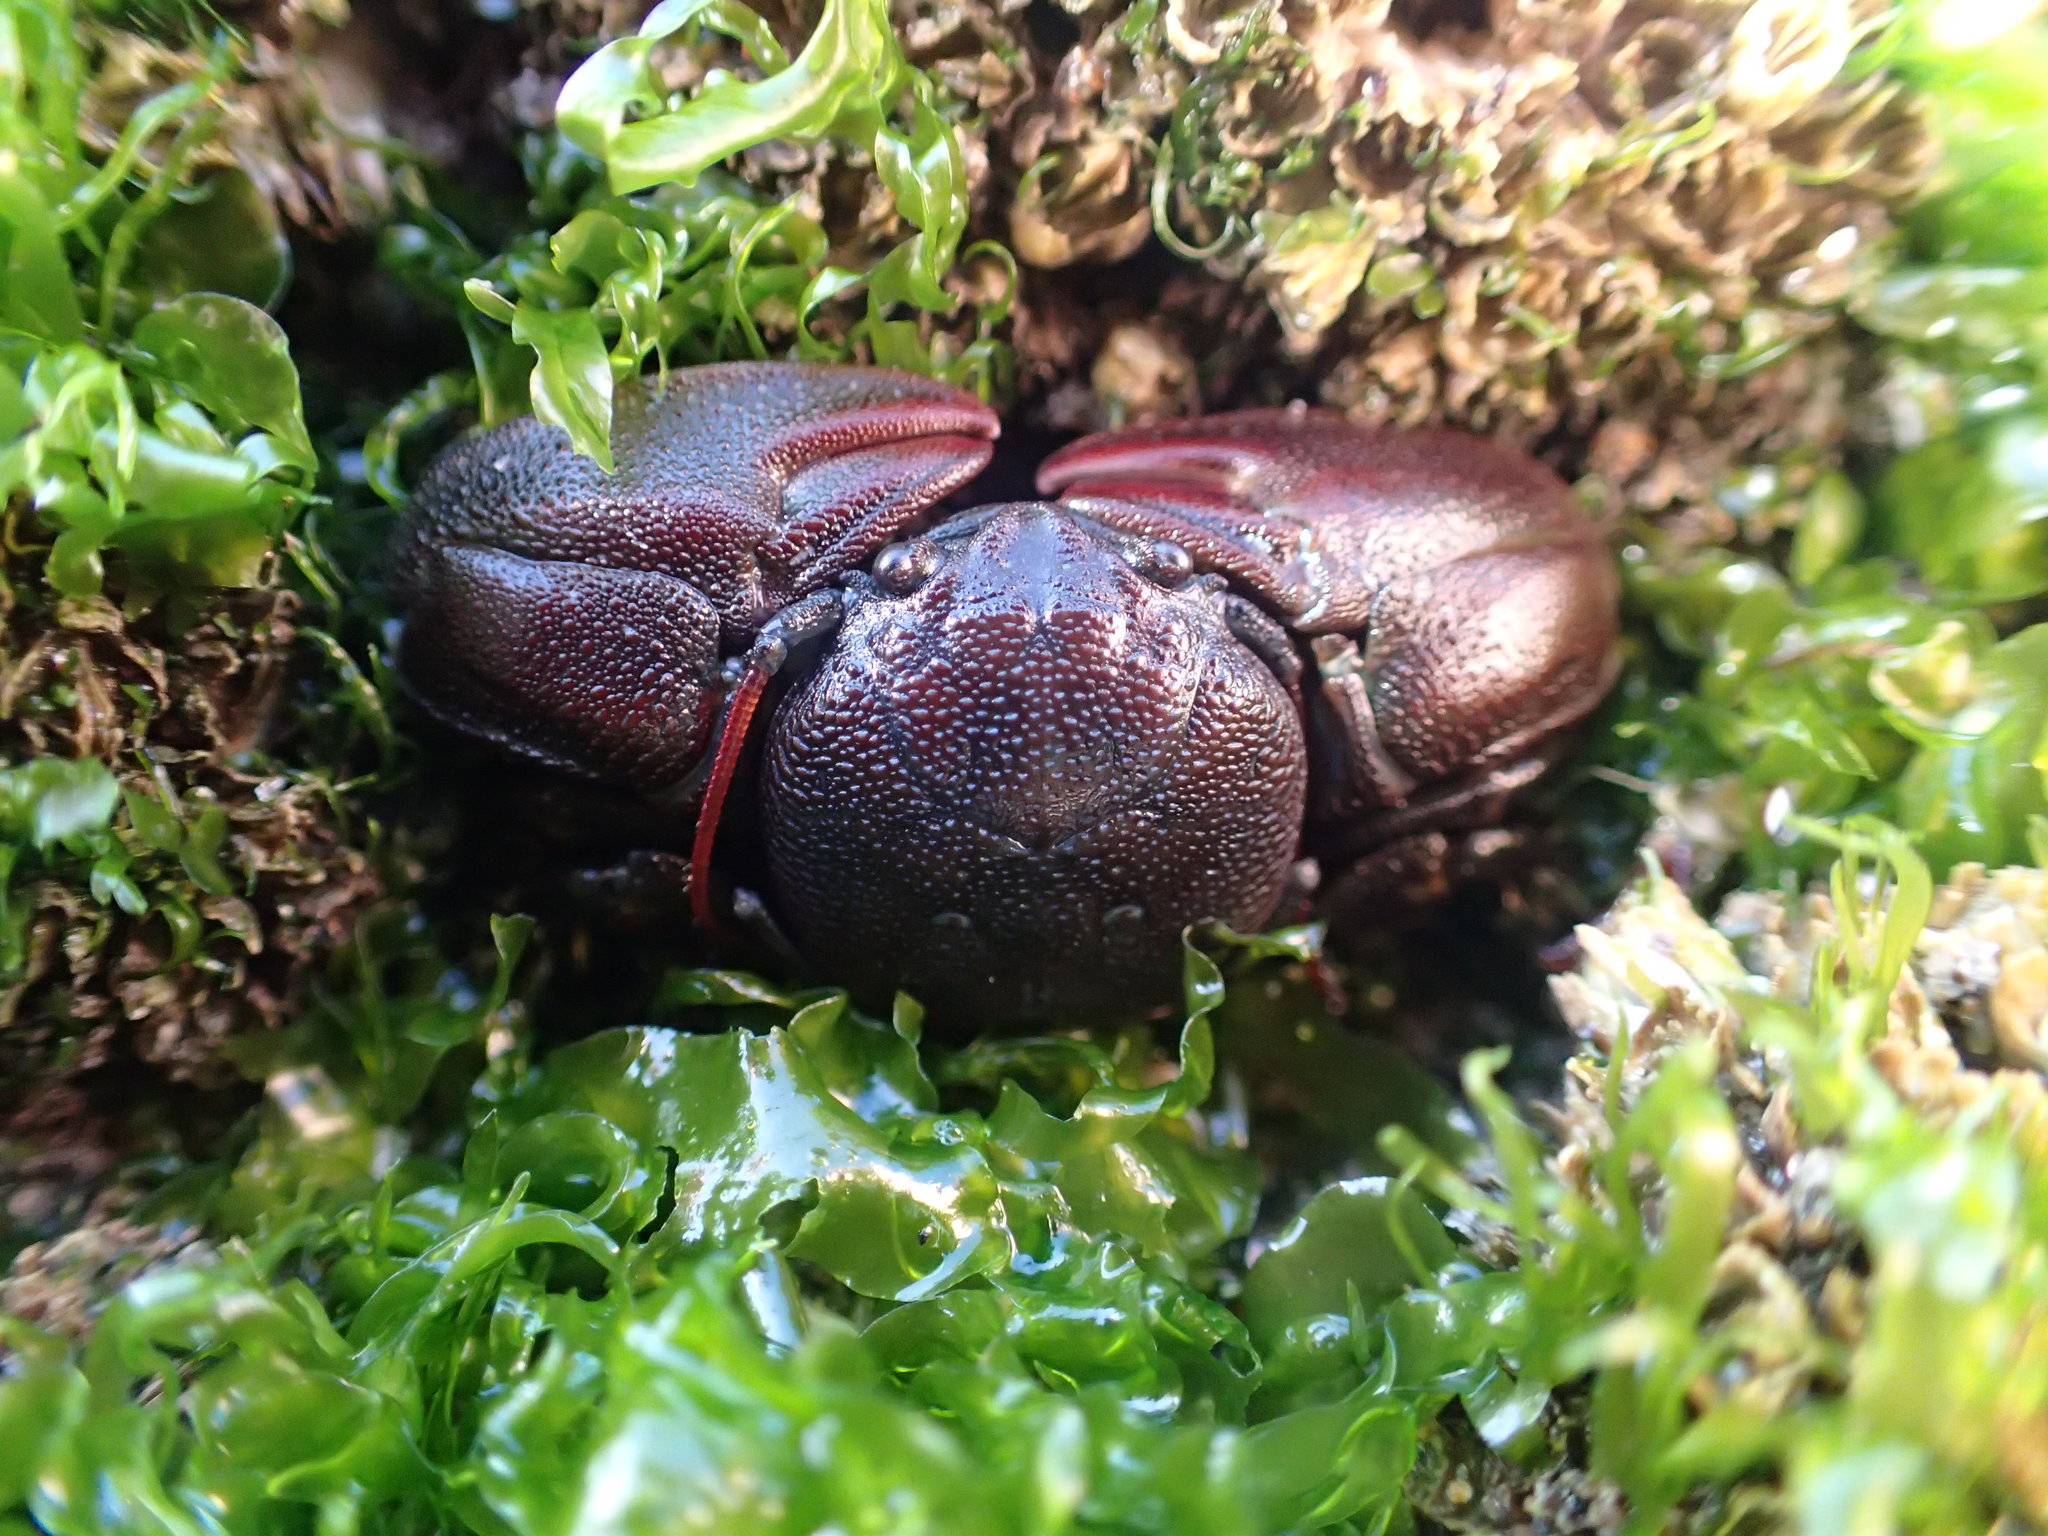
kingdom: Animalia
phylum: Arthropoda
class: Malacostraca
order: Decapoda
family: Porcellanidae
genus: Petrolisthes
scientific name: Petrolisthes cinctipes
